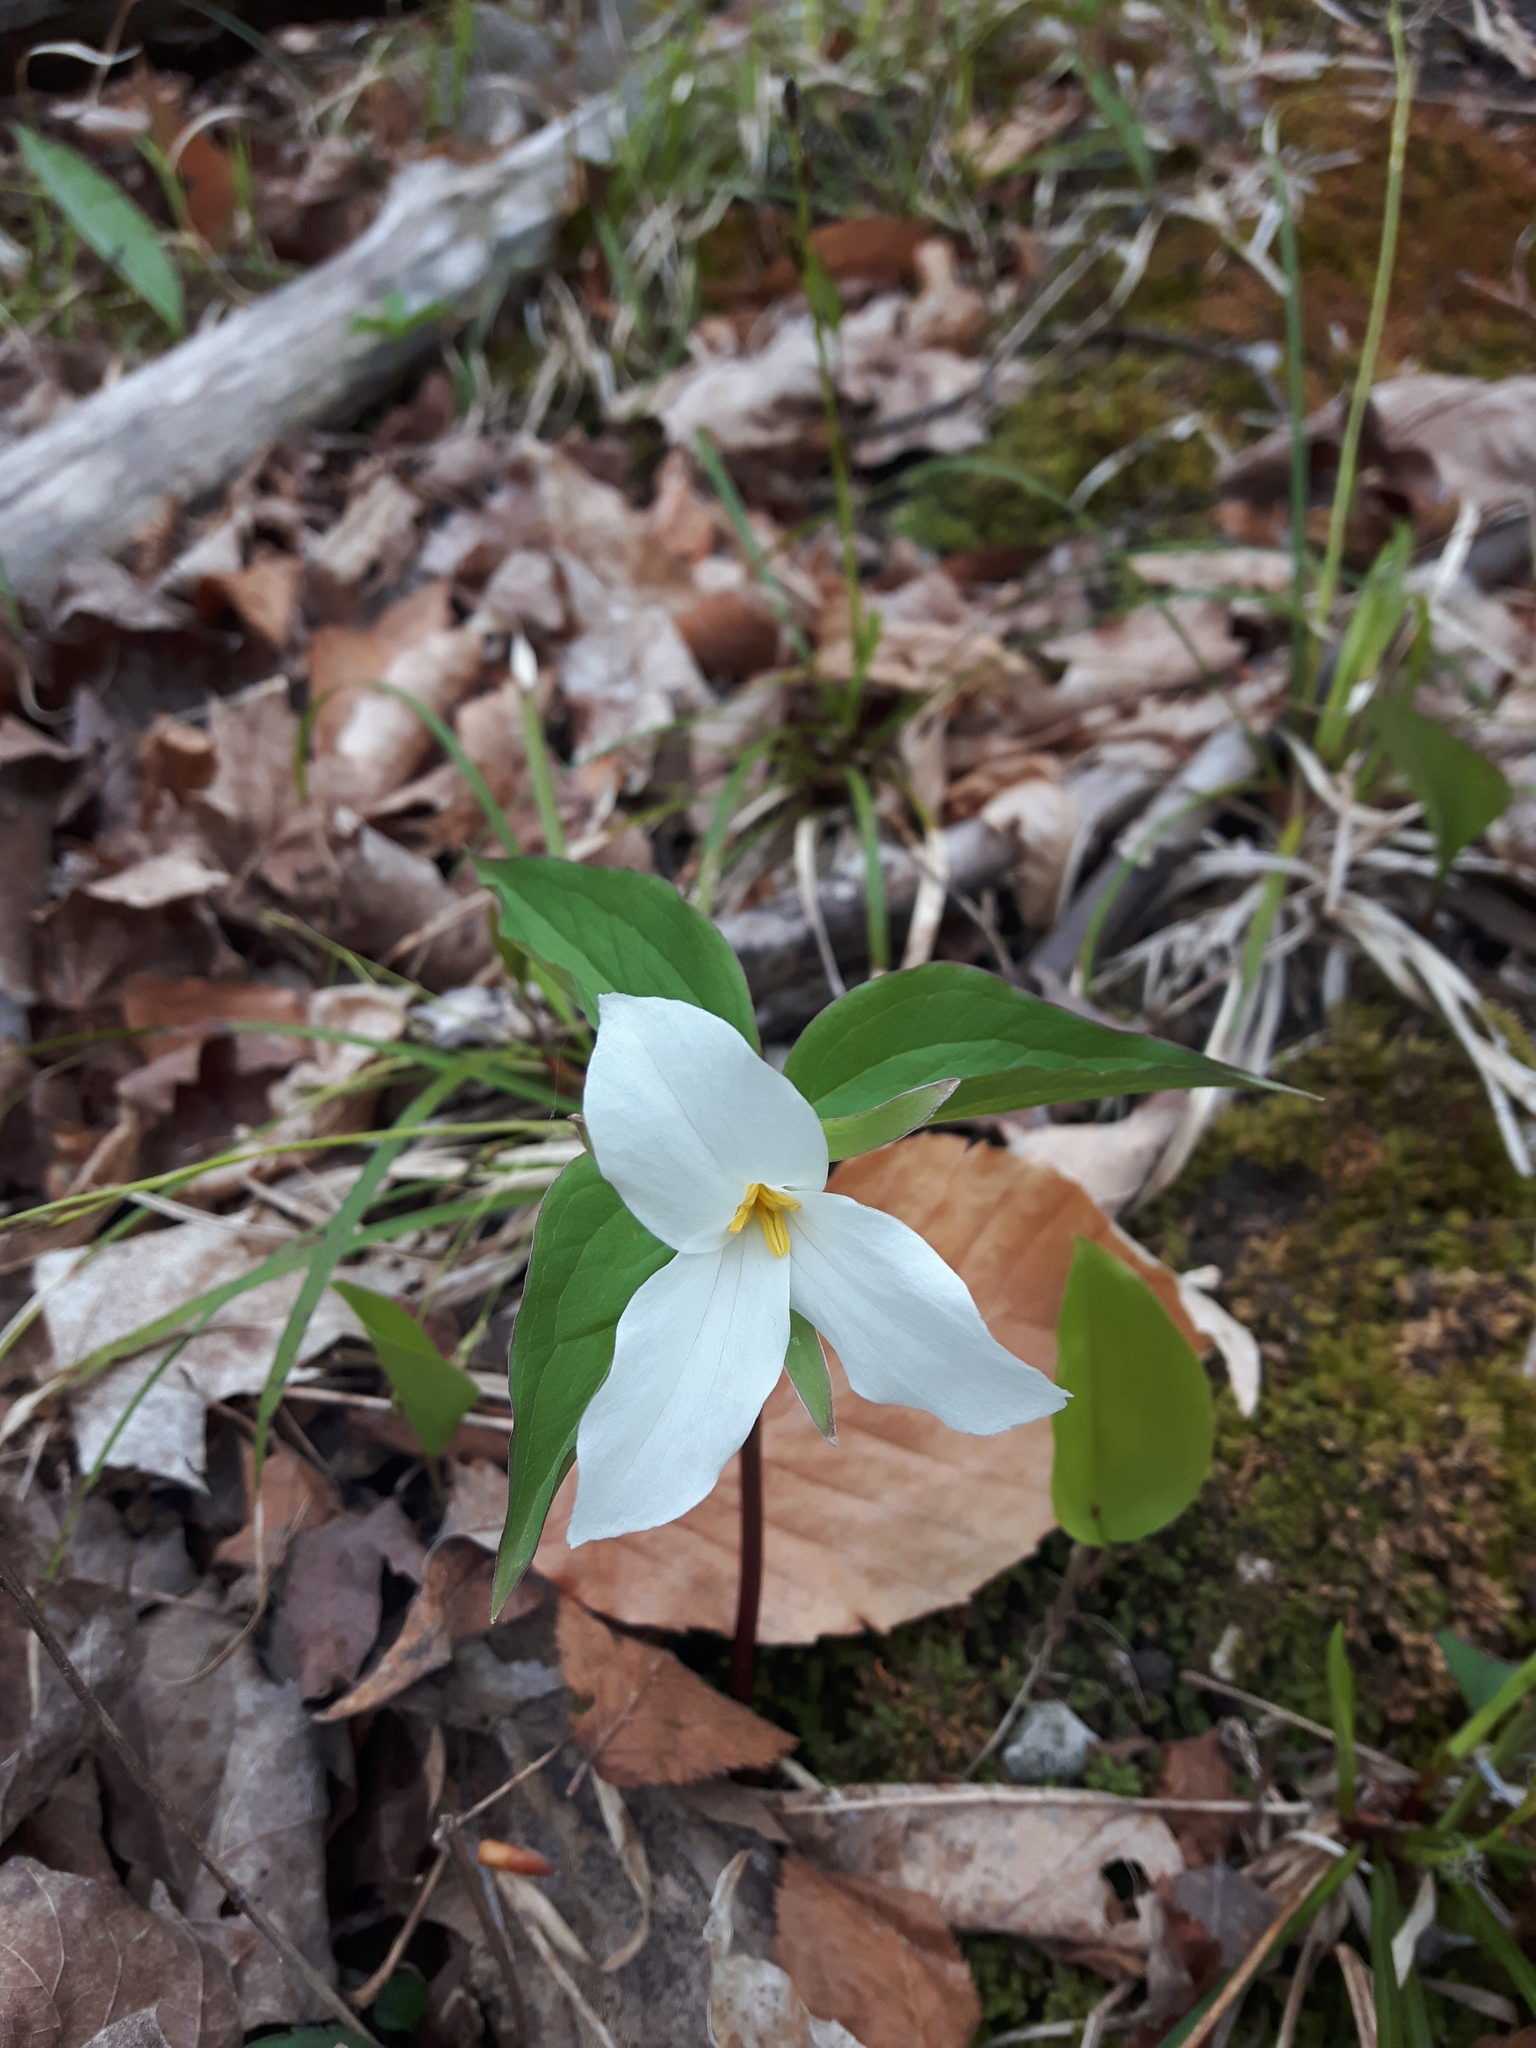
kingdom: Plantae
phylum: Tracheophyta
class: Liliopsida
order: Liliales
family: Melanthiaceae
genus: Trillium
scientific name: Trillium grandiflorum
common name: Great white trillium
